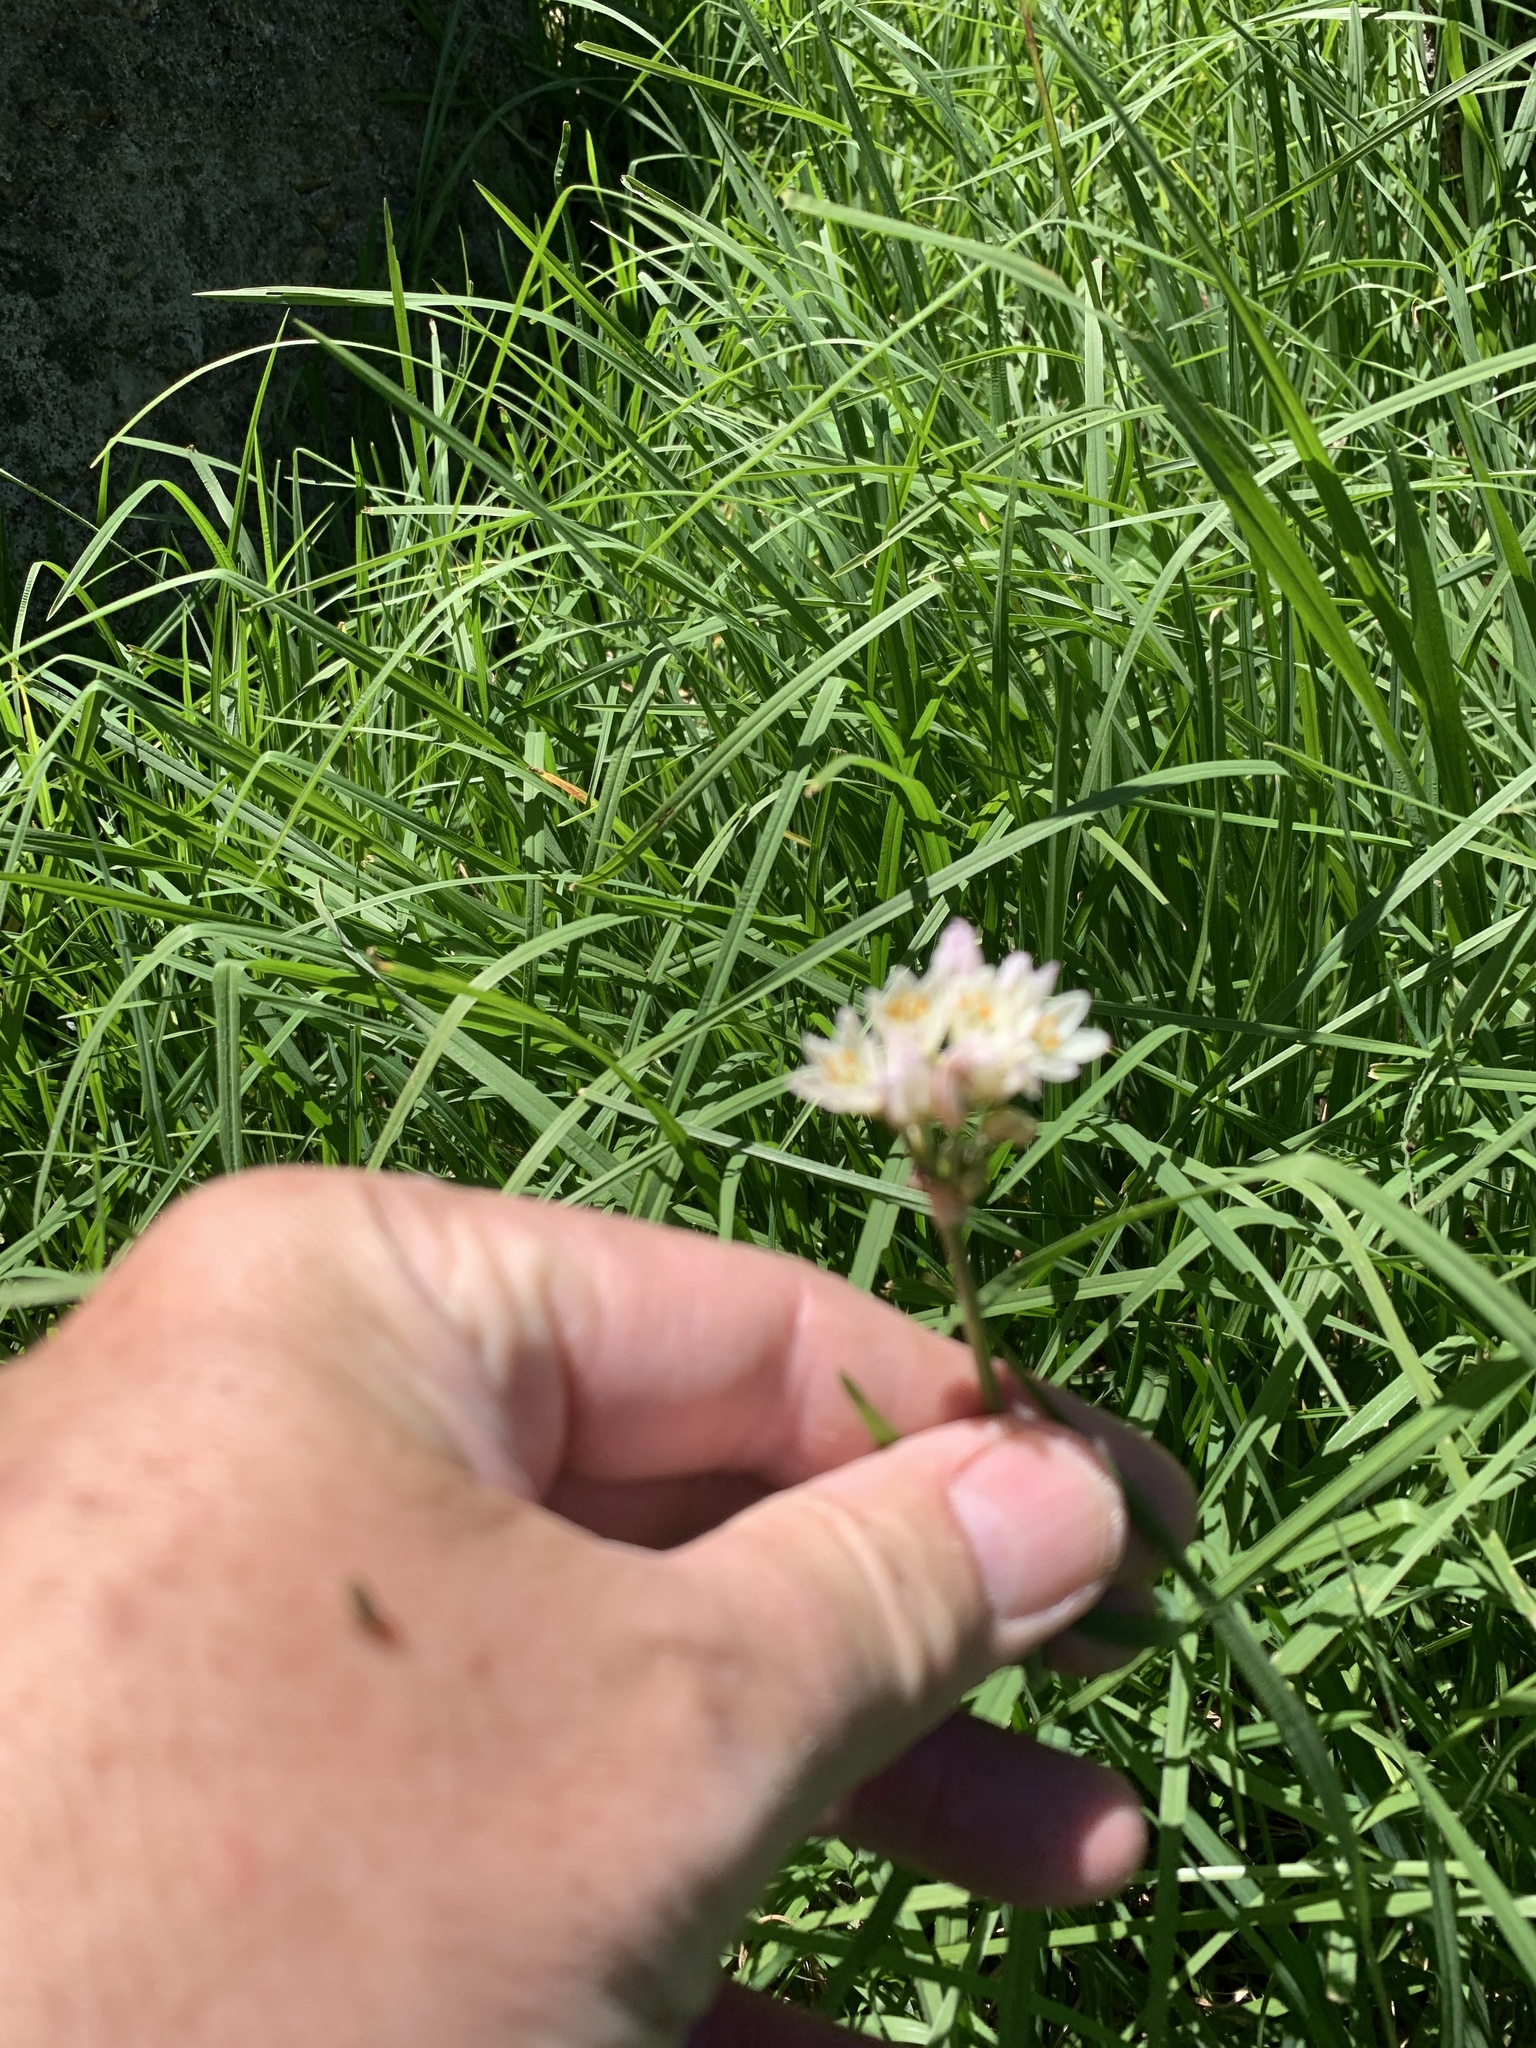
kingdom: Plantae
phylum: Tracheophyta
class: Liliopsida
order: Asparagales
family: Amaryllidaceae
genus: Nothoscordum
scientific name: Nothoscordum gracile
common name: Slender false garlic
